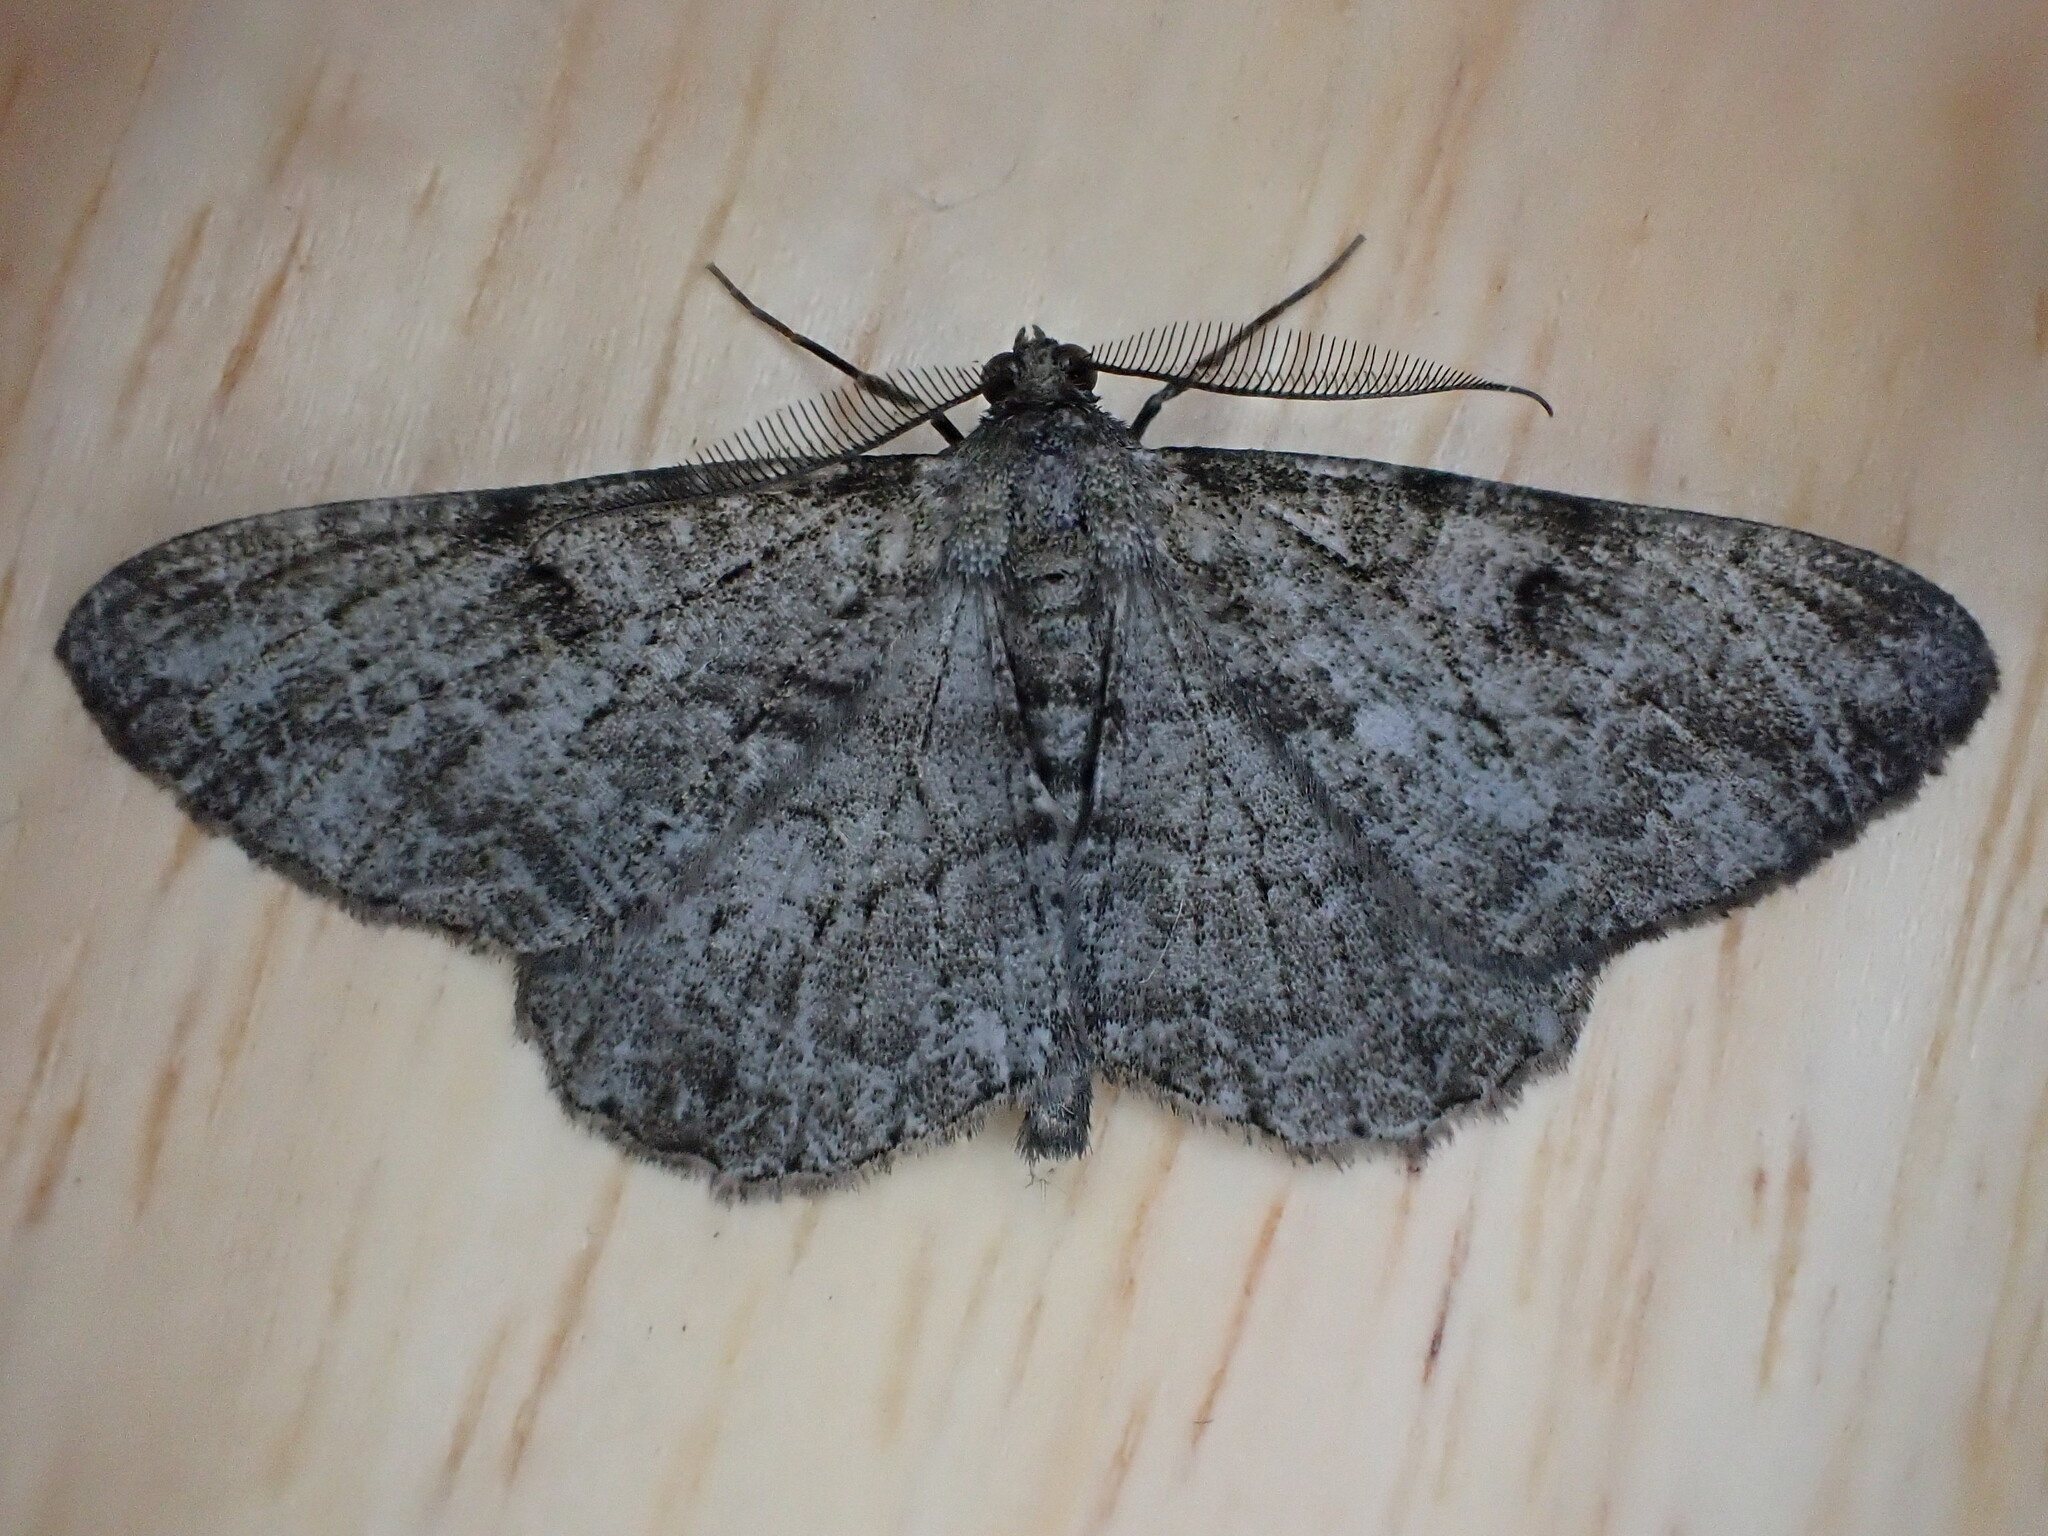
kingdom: Animalia
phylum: Arthropoda
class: Insecta
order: Lepidoptera
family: Geometridae
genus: Peribatodes
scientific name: Peribatodes rhomboidaria
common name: Willow beauty
